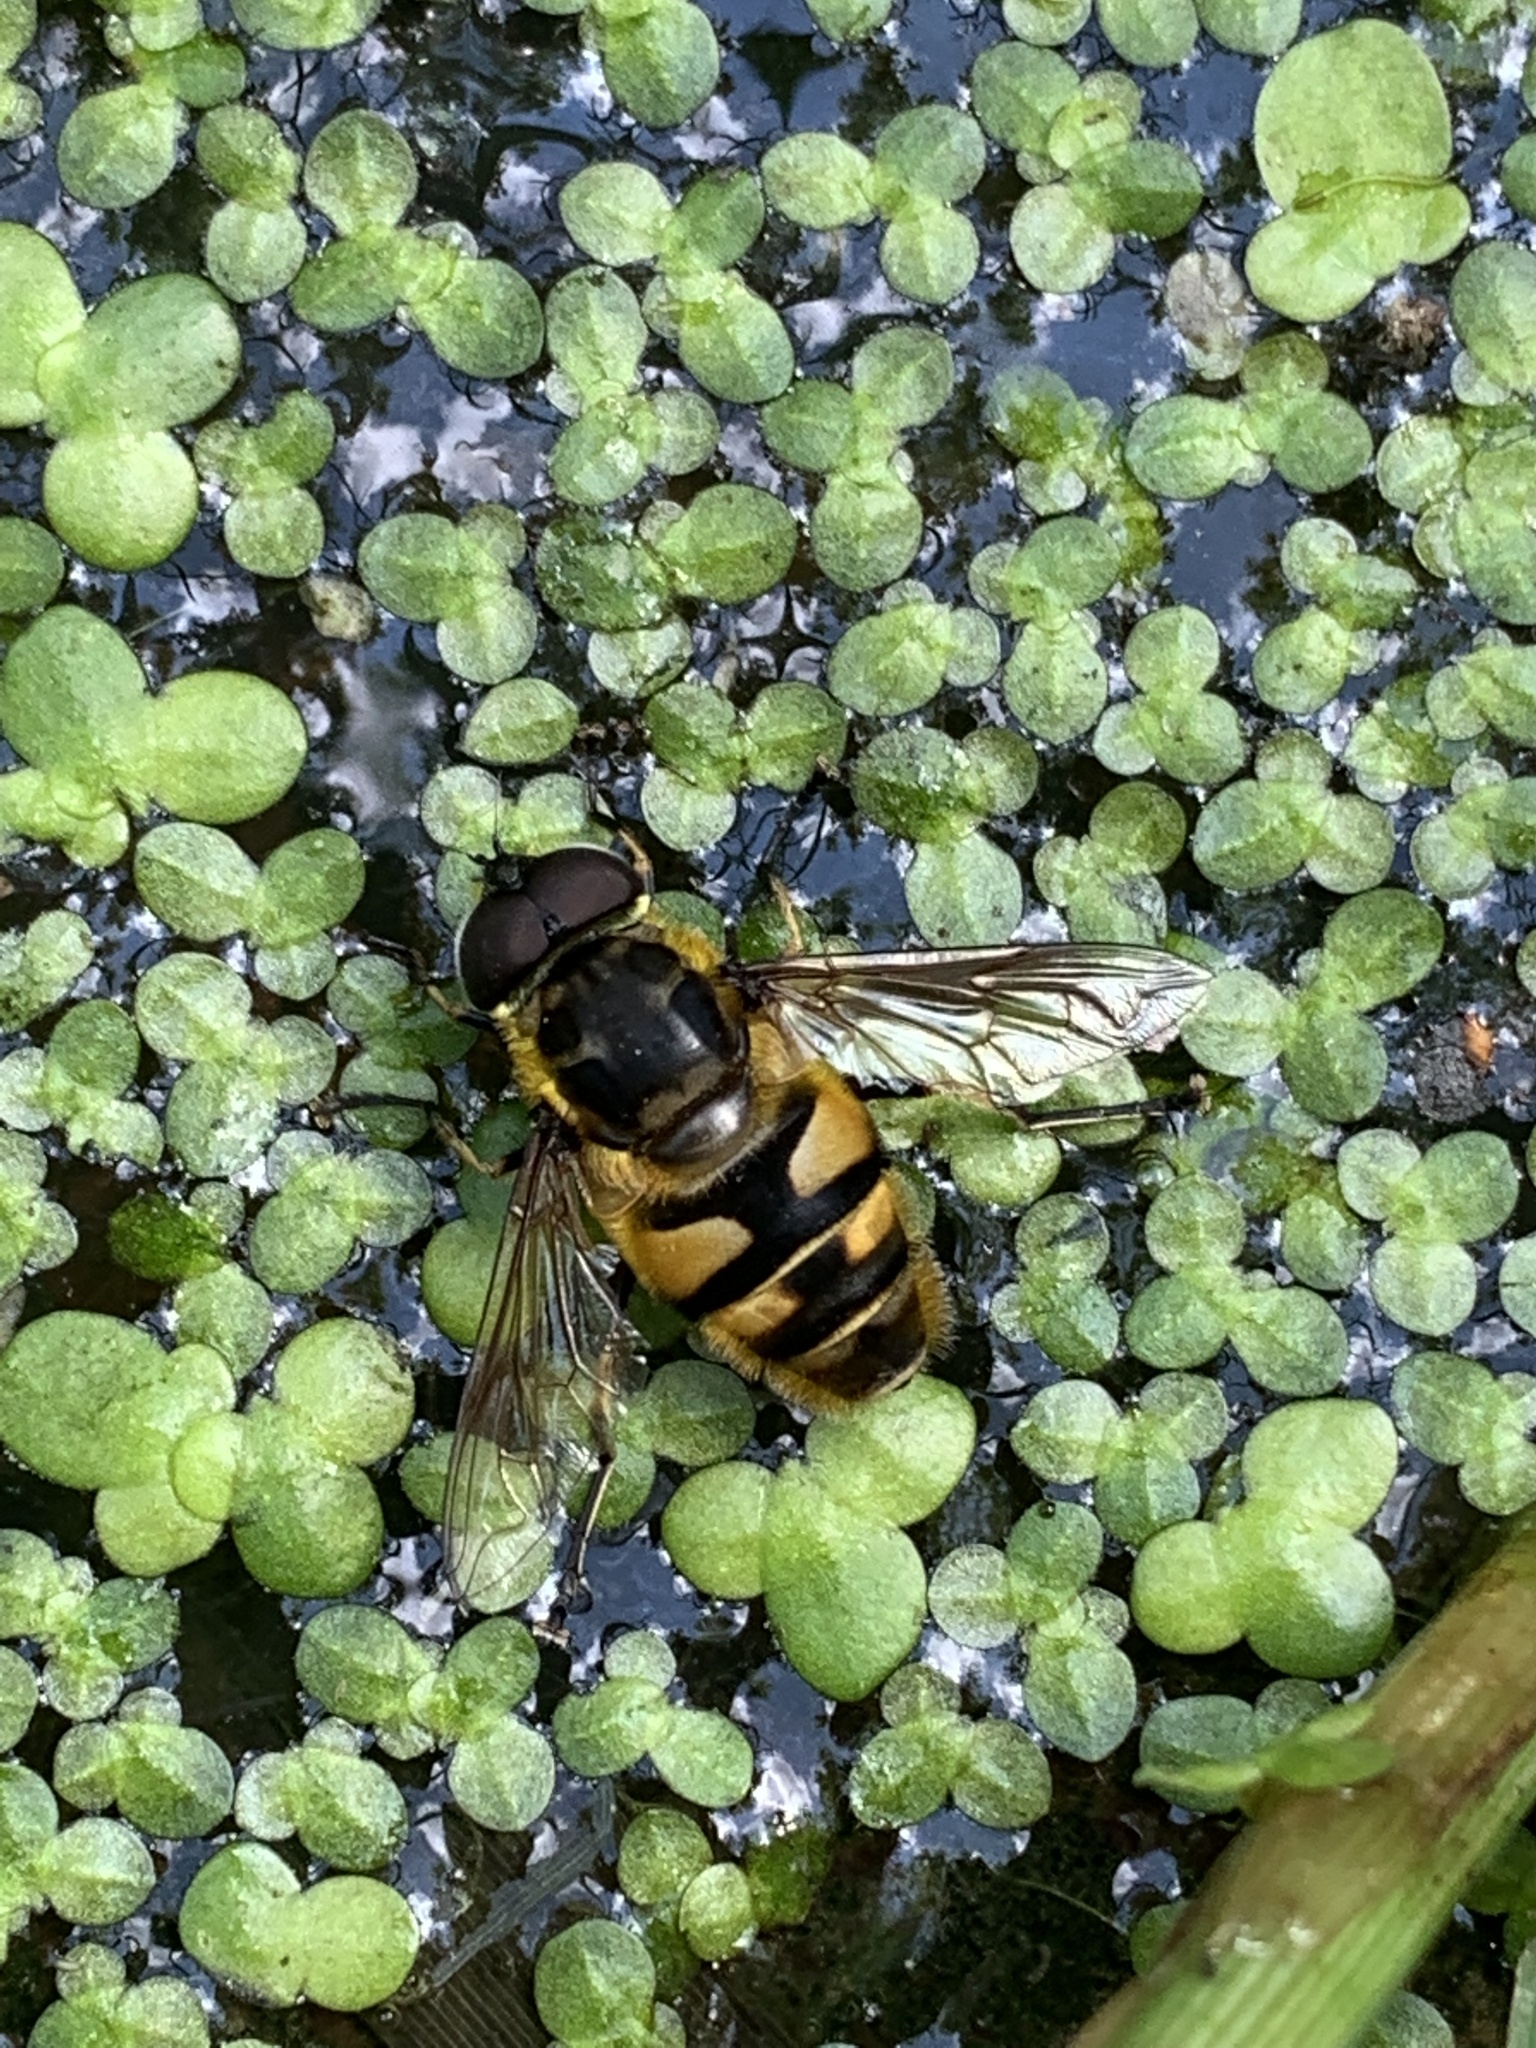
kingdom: Animalia
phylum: Arthropoda
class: Insecta
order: Diptera
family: Syrphidae
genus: Myathropa
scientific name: Myathropa florea
